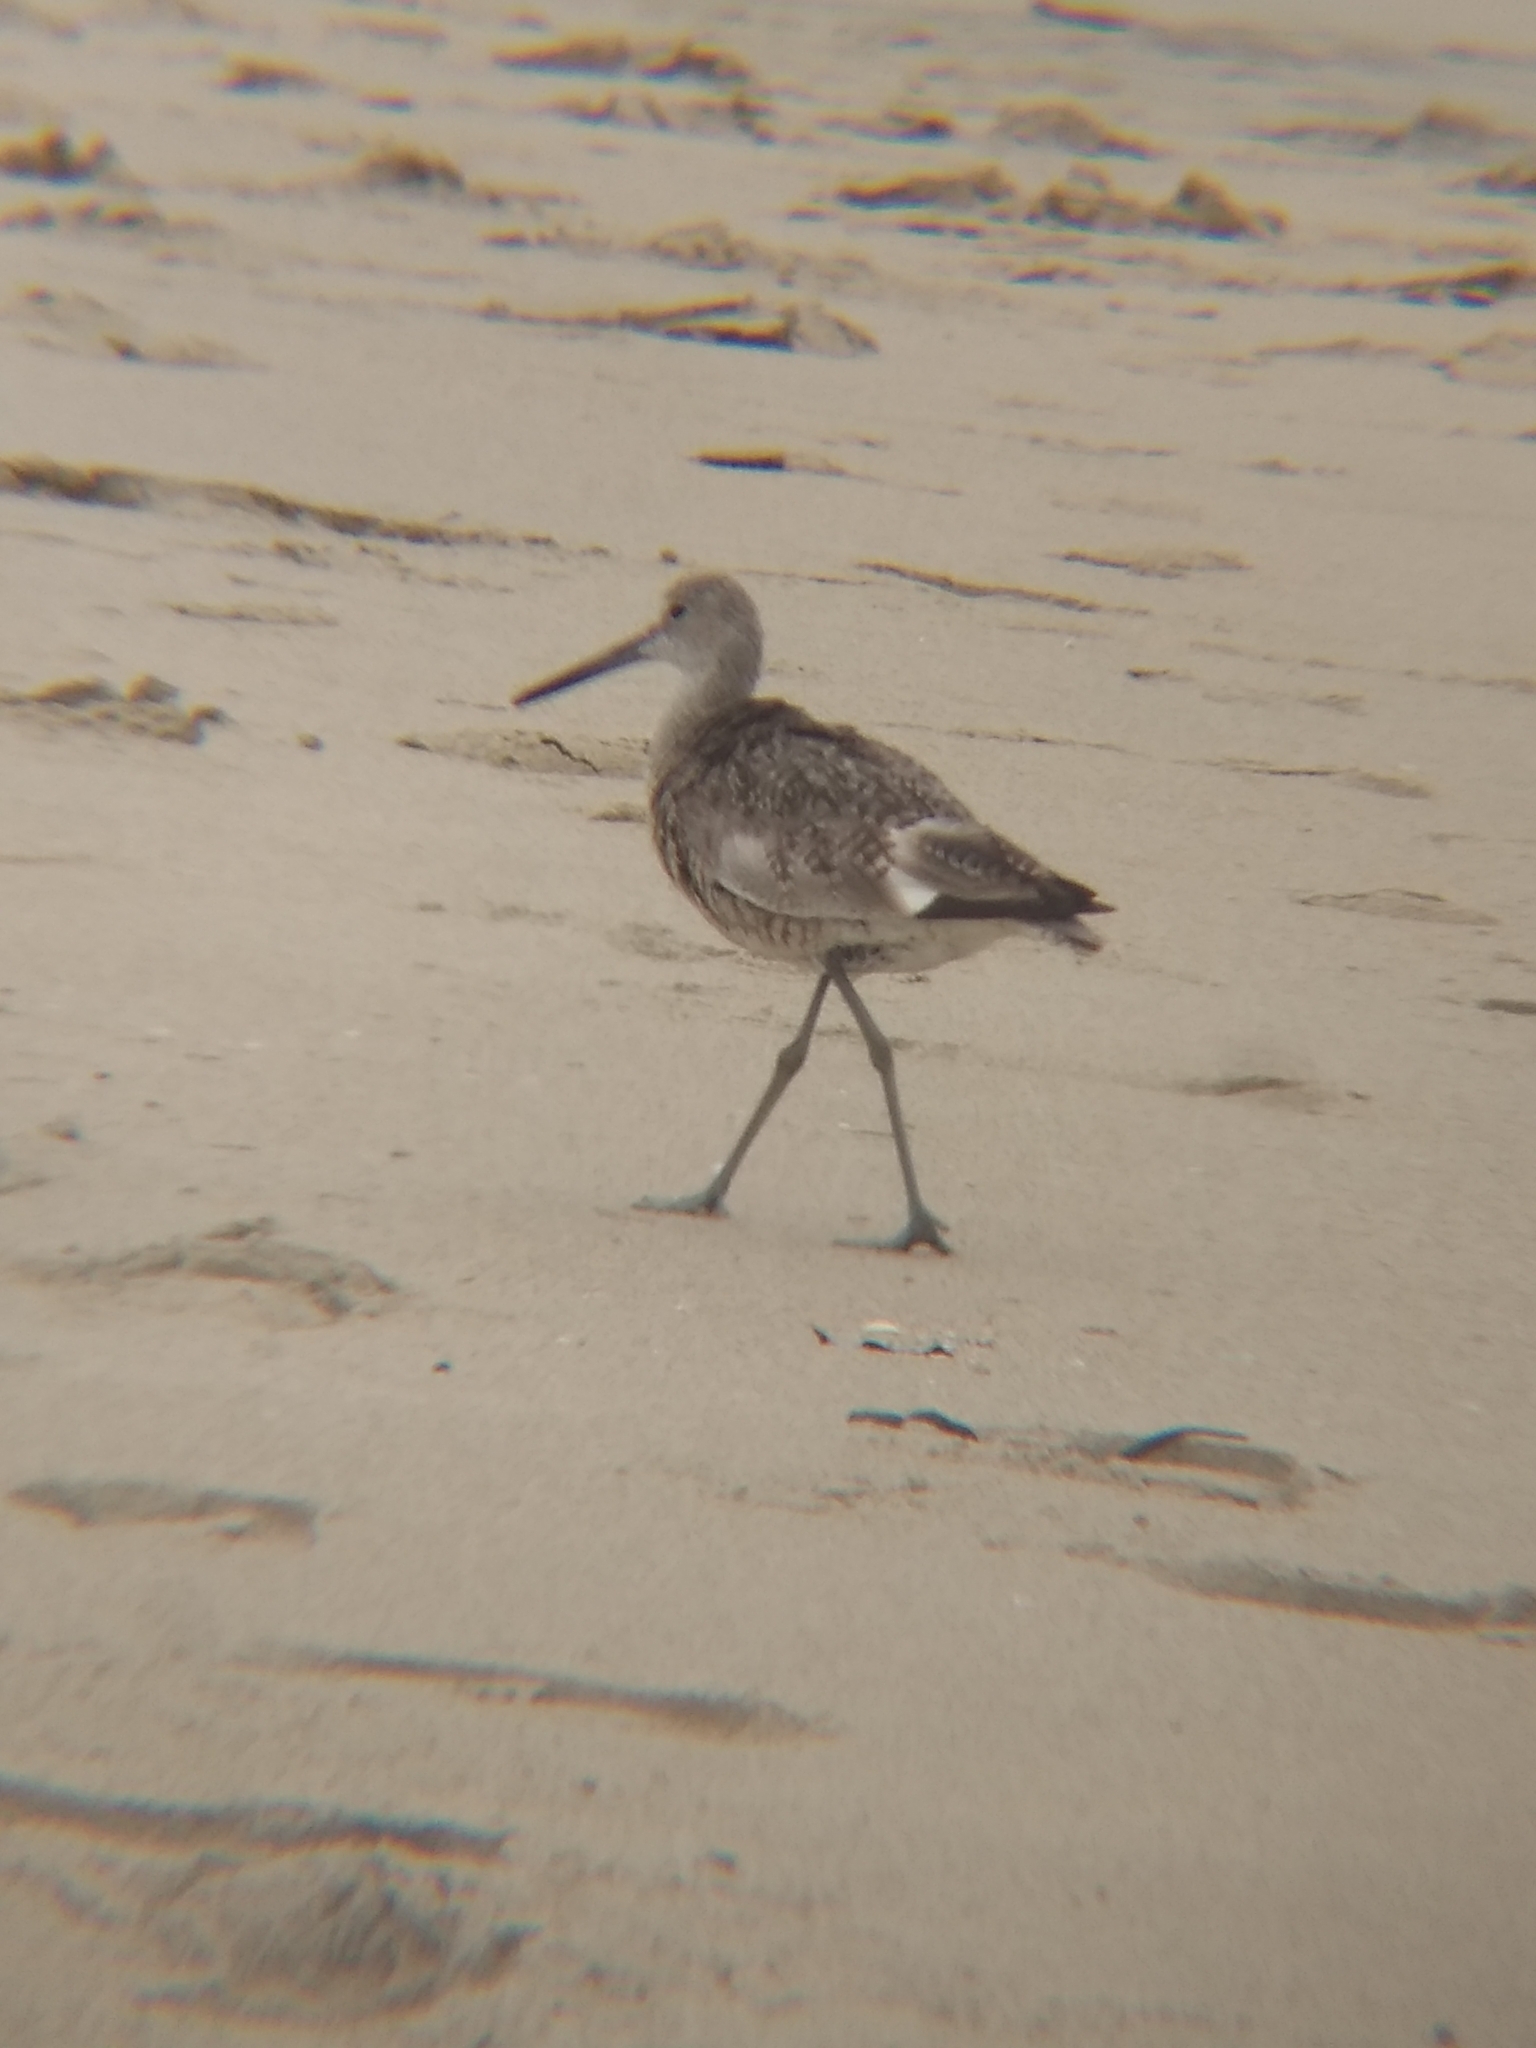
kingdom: Animalia
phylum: Chordata
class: Aves
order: Charadriiformes
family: Scolopacidae
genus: Tringa
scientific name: Tringa semipalmata
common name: Willet
